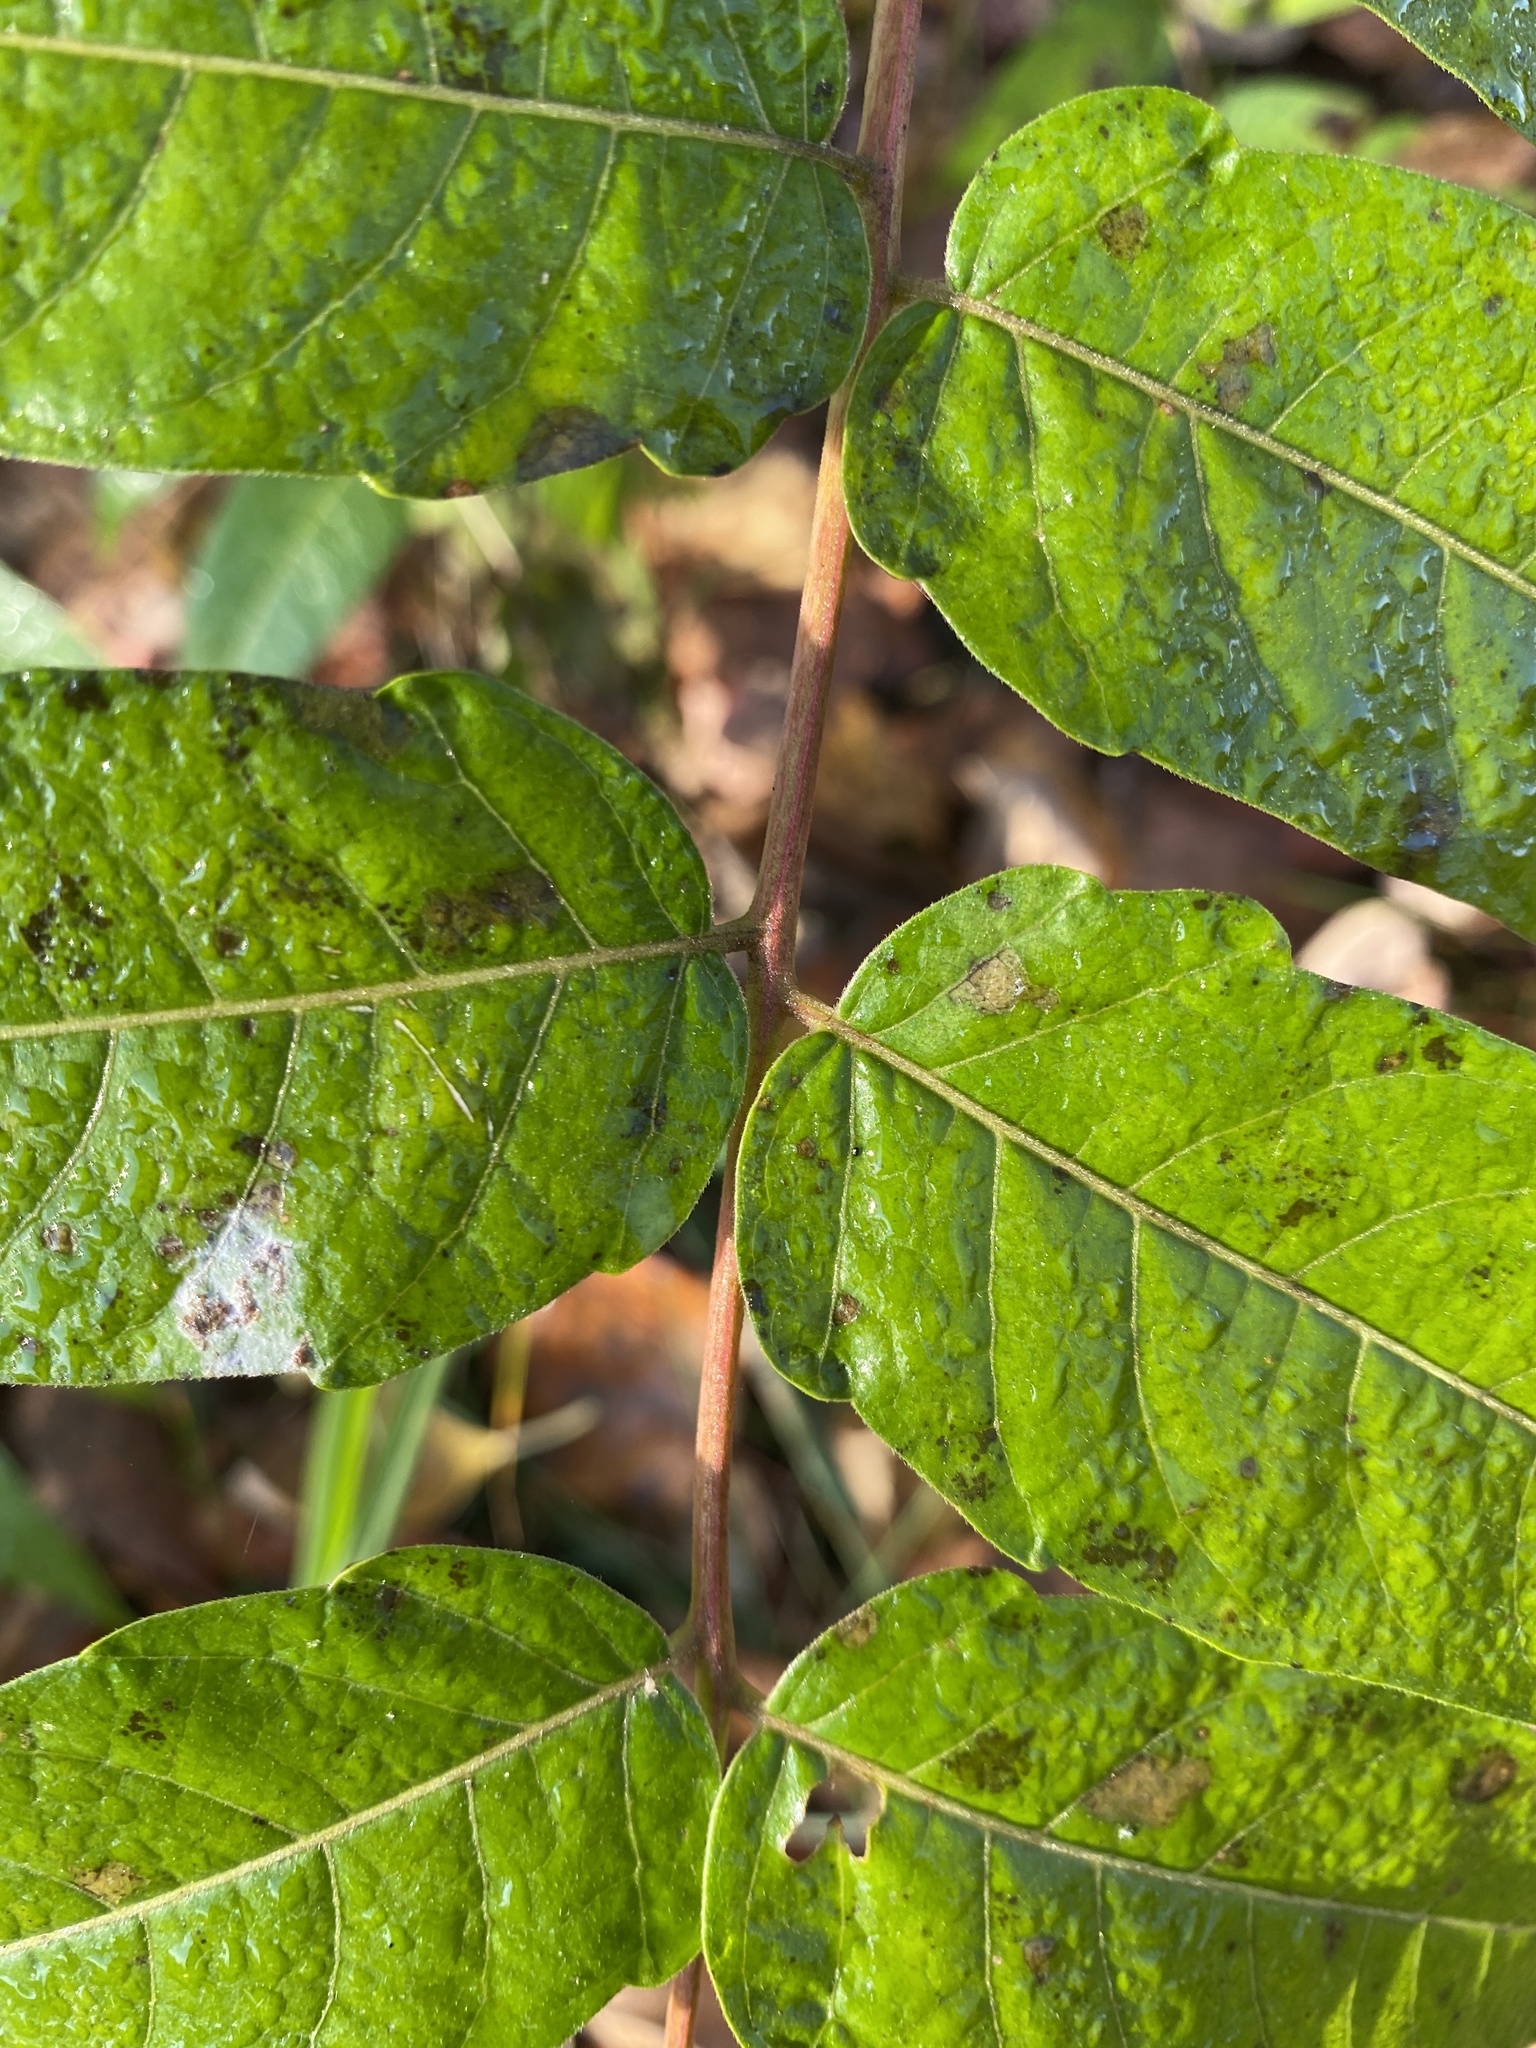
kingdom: Plantae
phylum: Tracheophyta
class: Magnoliopsida
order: Sapindales
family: Simaroubaceae
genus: Ailanthus
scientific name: Ailanthus altissima
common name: Tree-of-heaven
